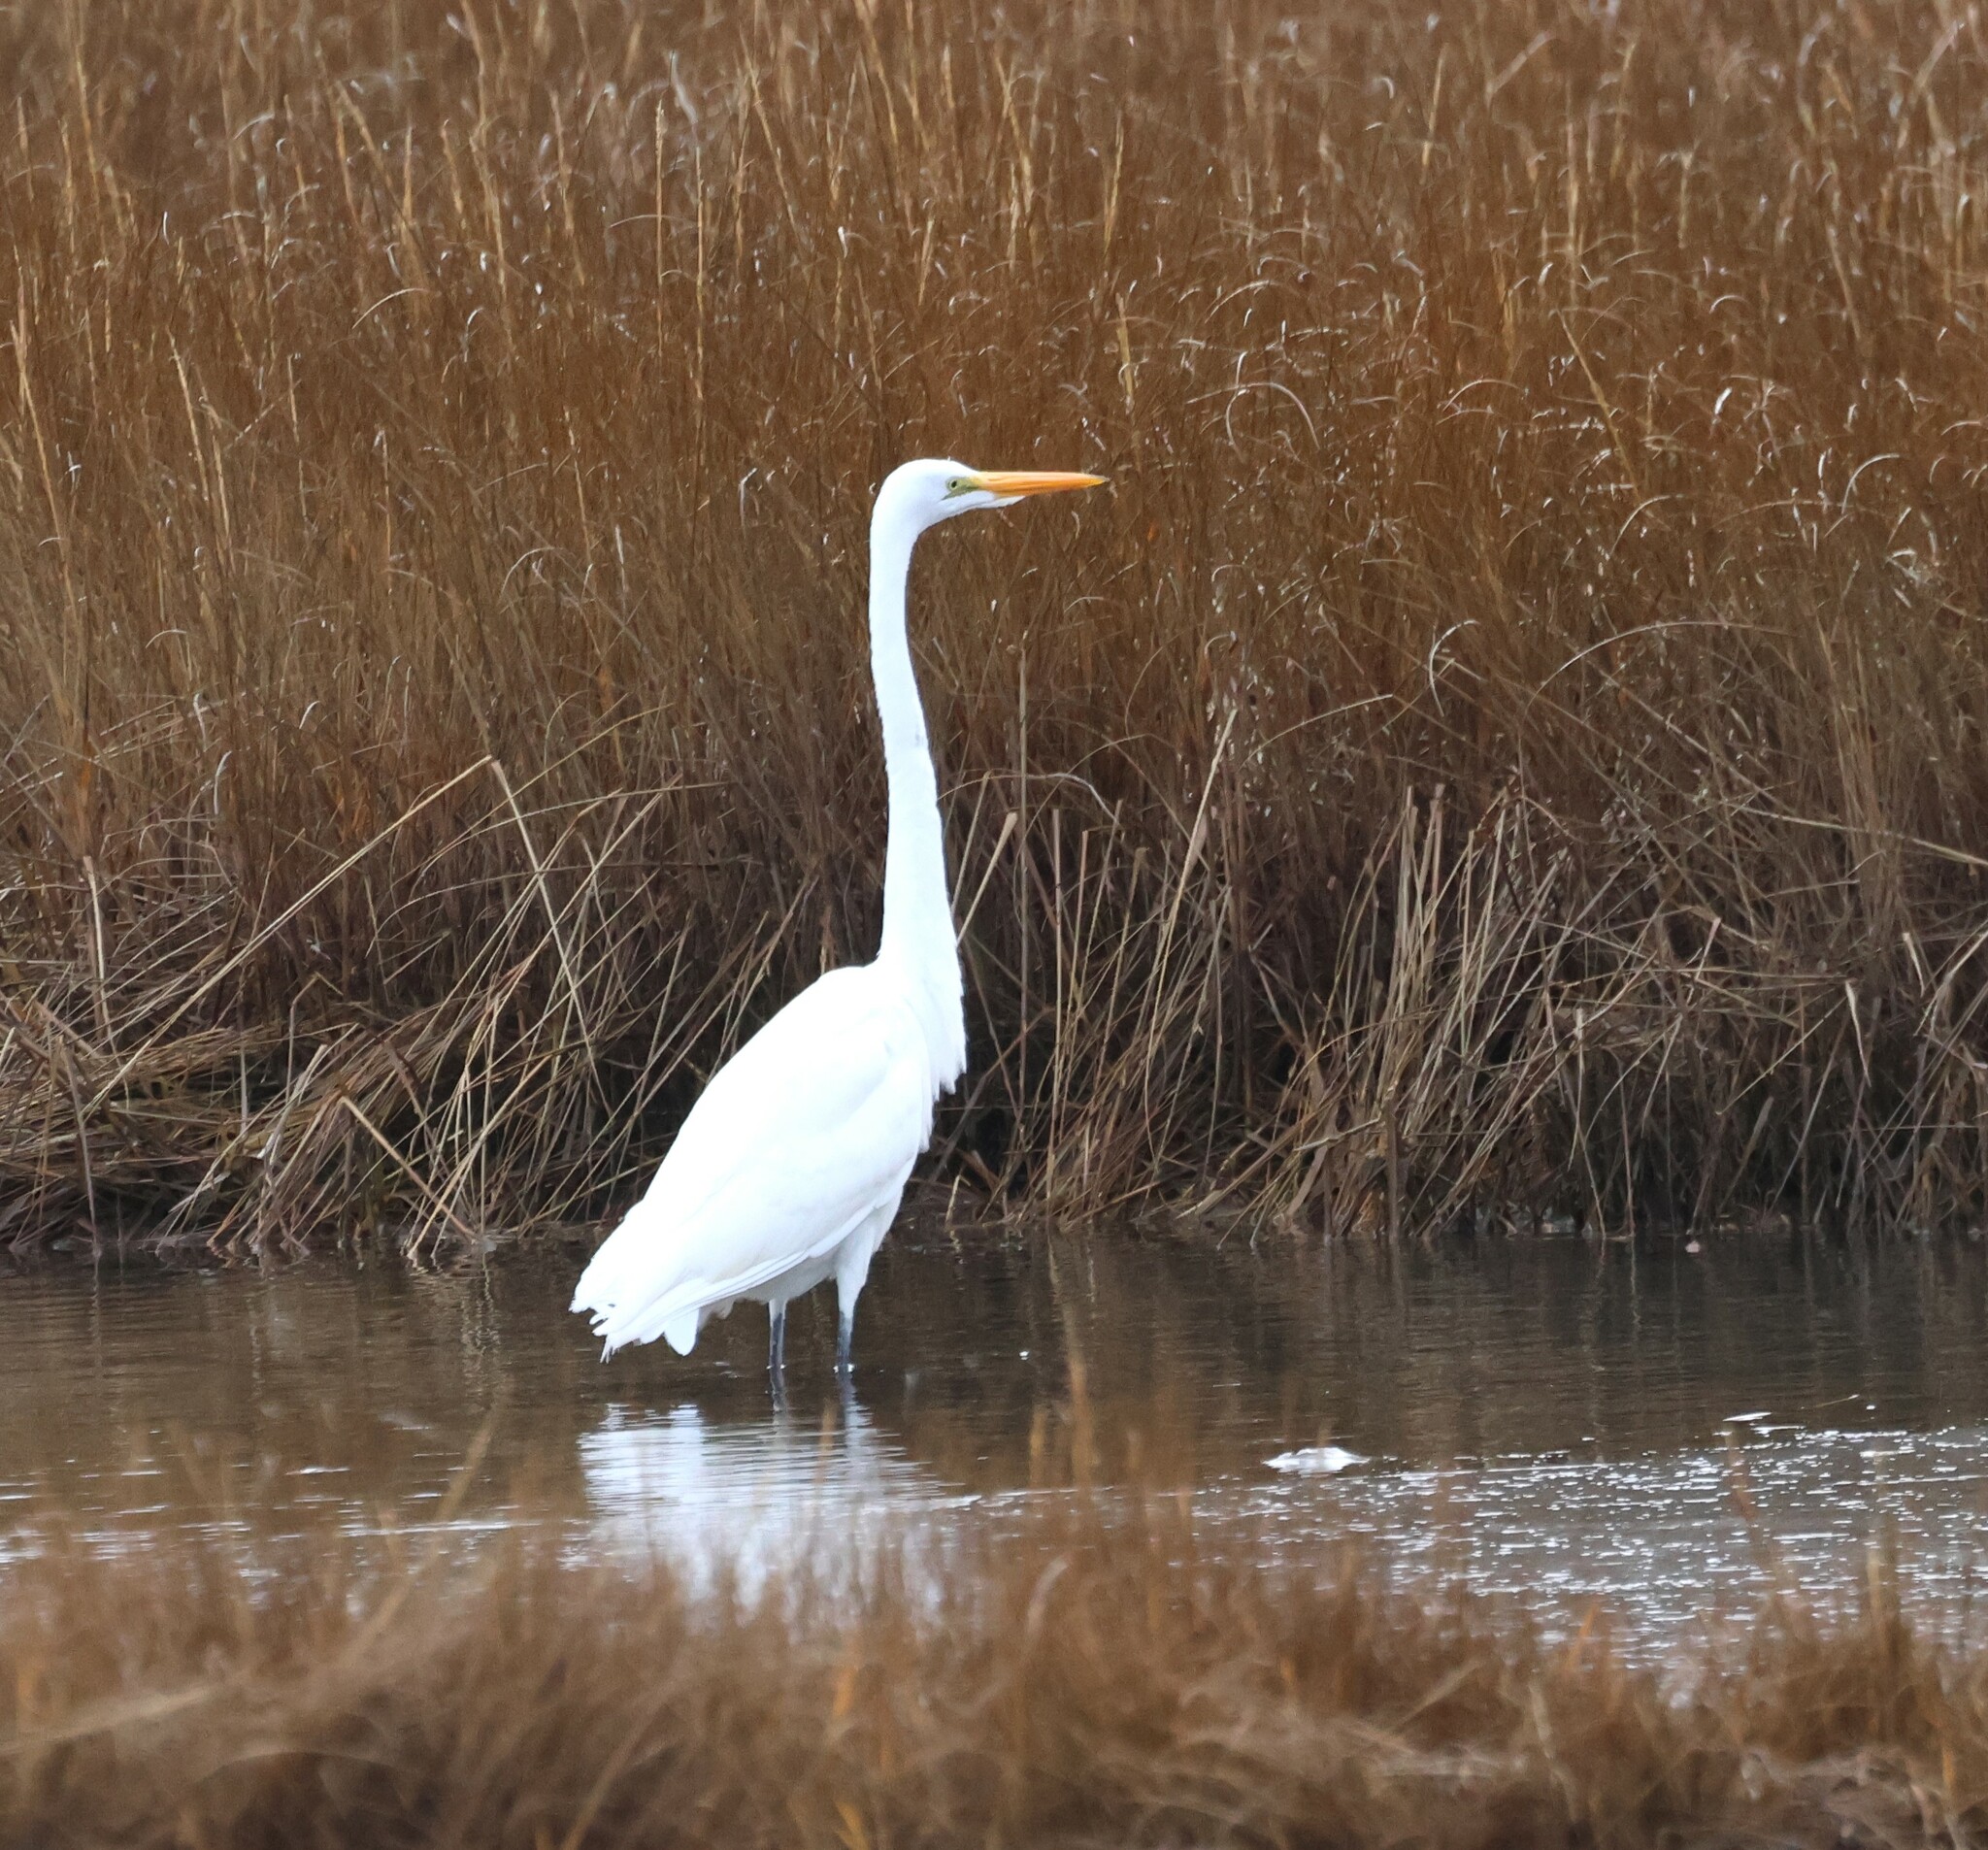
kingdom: Animalia
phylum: Chordata
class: Aves
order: Pelecaniformes
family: Ardeidae
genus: Ardea
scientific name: Ardea alba
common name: Great egret
